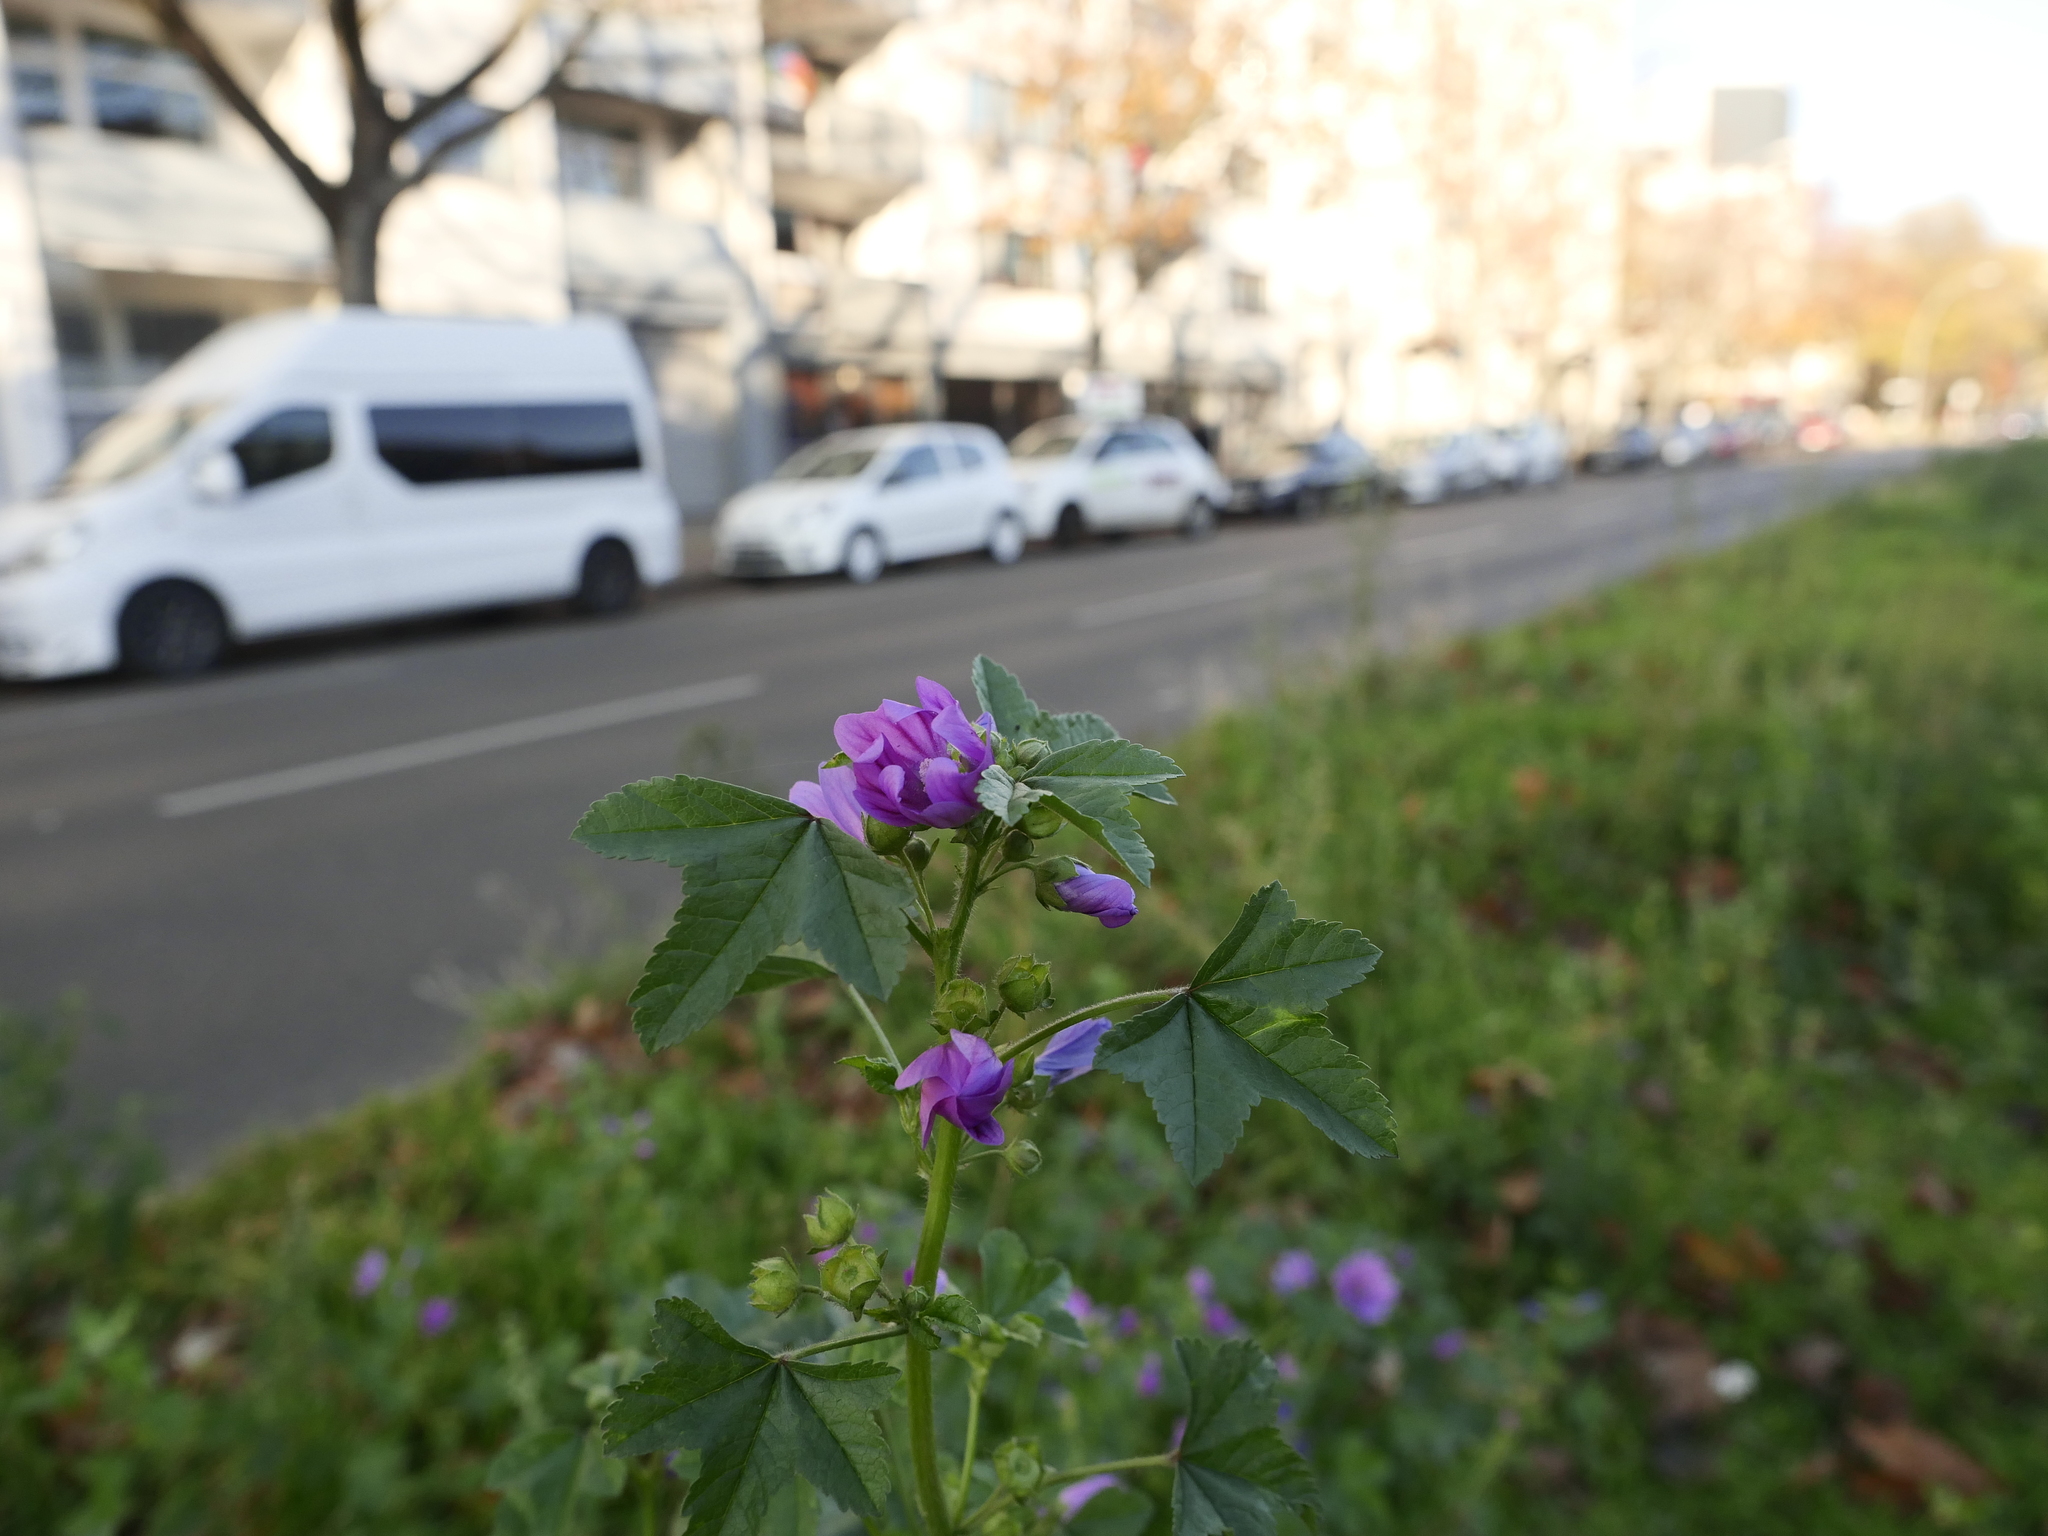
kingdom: Plantae
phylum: Tracheophyta
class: Magnoliopsida
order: Malvales
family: Malvaceae
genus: Malva
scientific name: Malva sylvestris
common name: Common mallow
